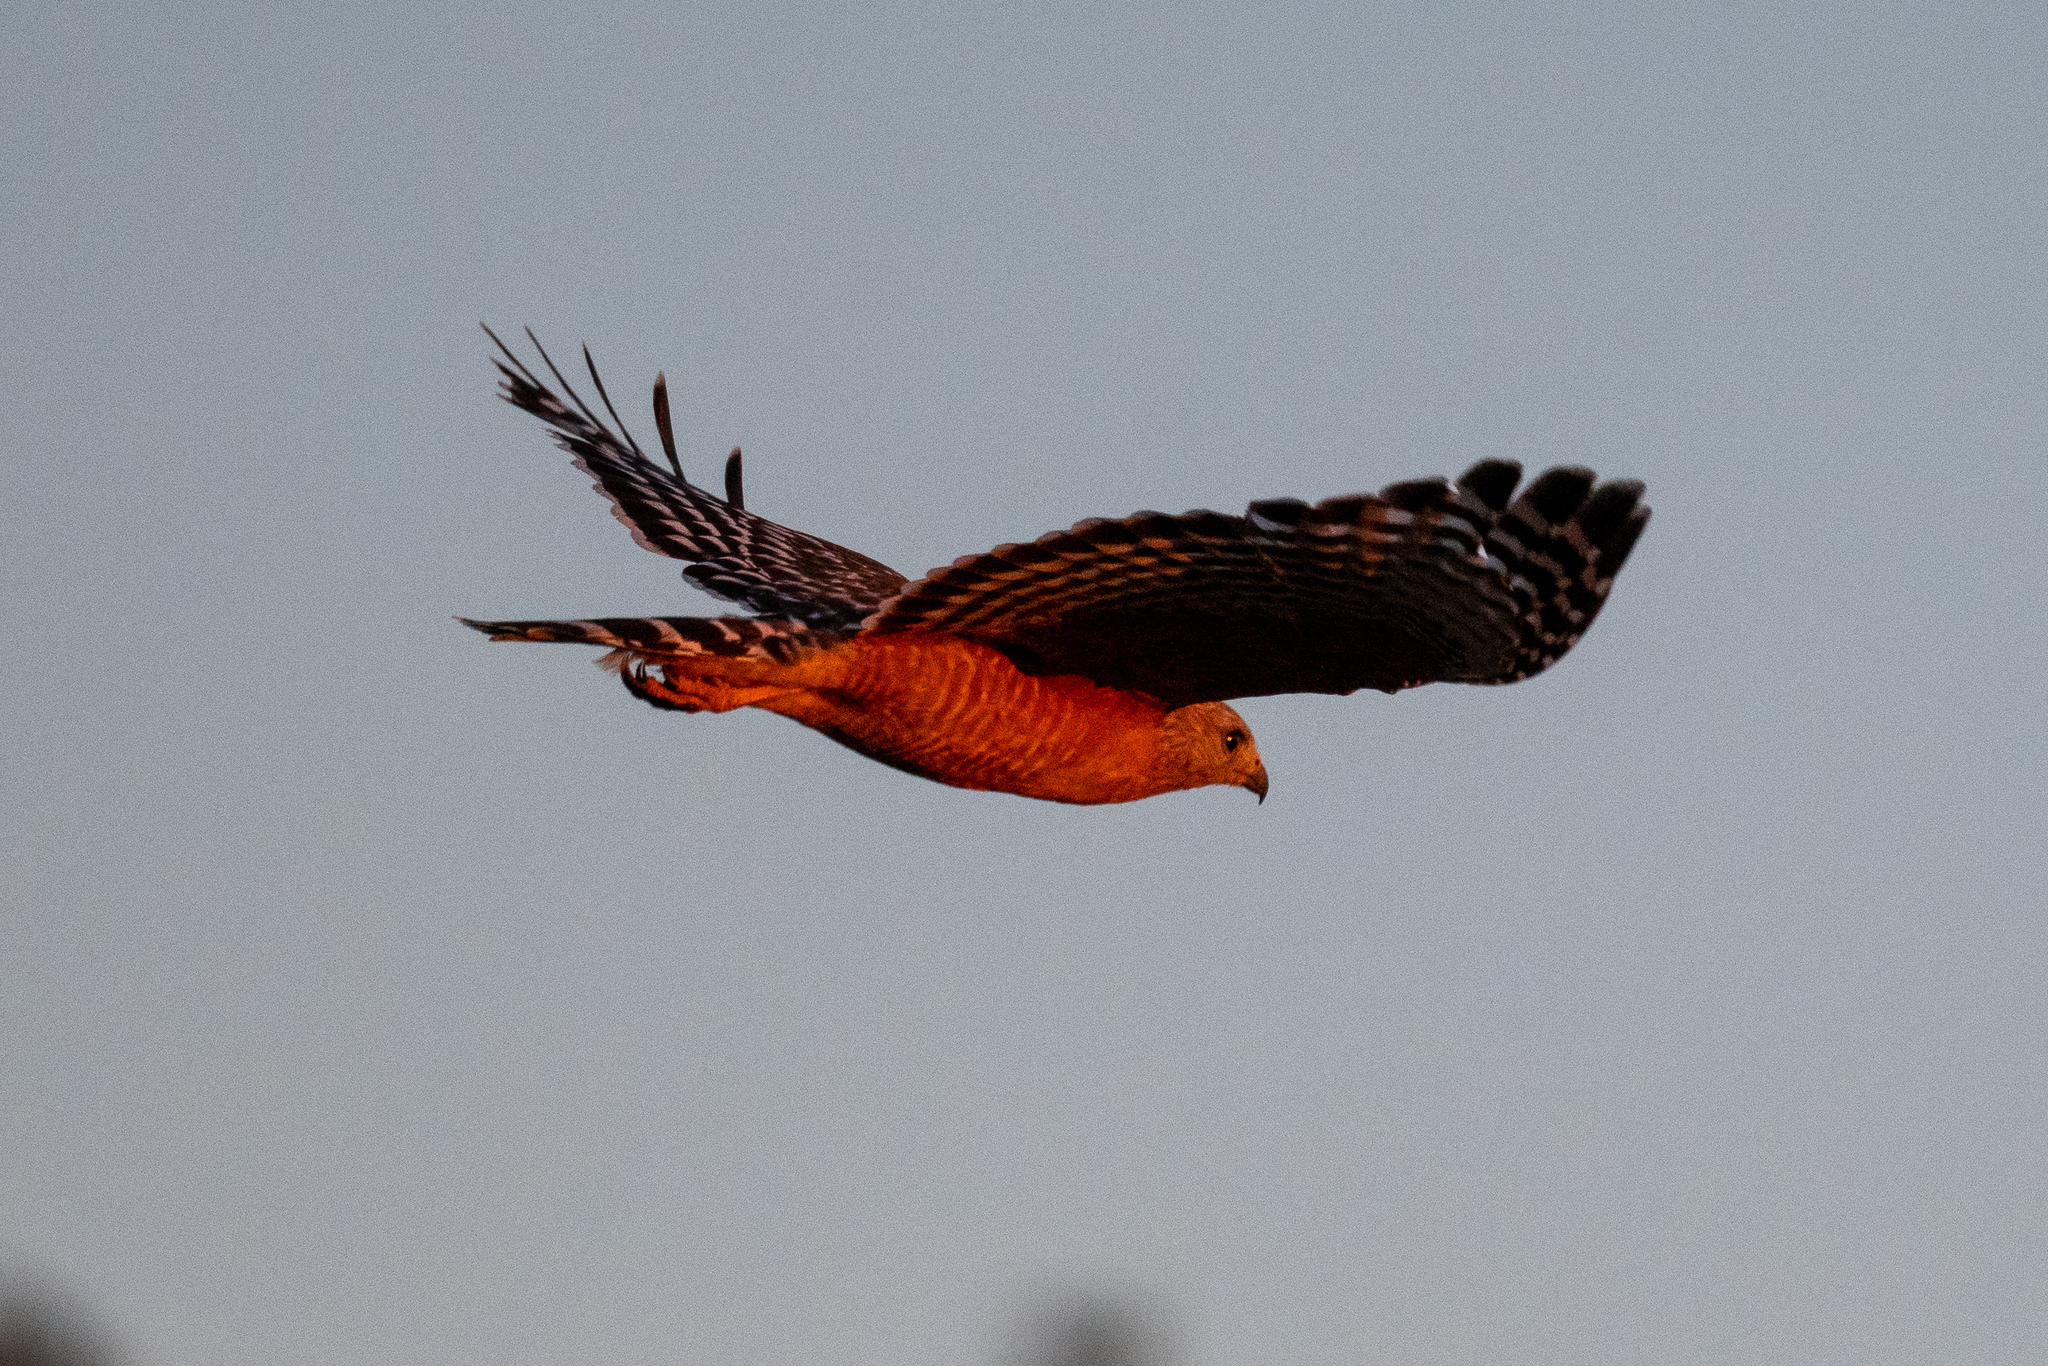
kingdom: Animalia
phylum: Chordata
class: Aves
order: Accipitriformes
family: Accipitridae
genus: Buteo
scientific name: Buteo lineatus
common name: Red-shouldered hawk
